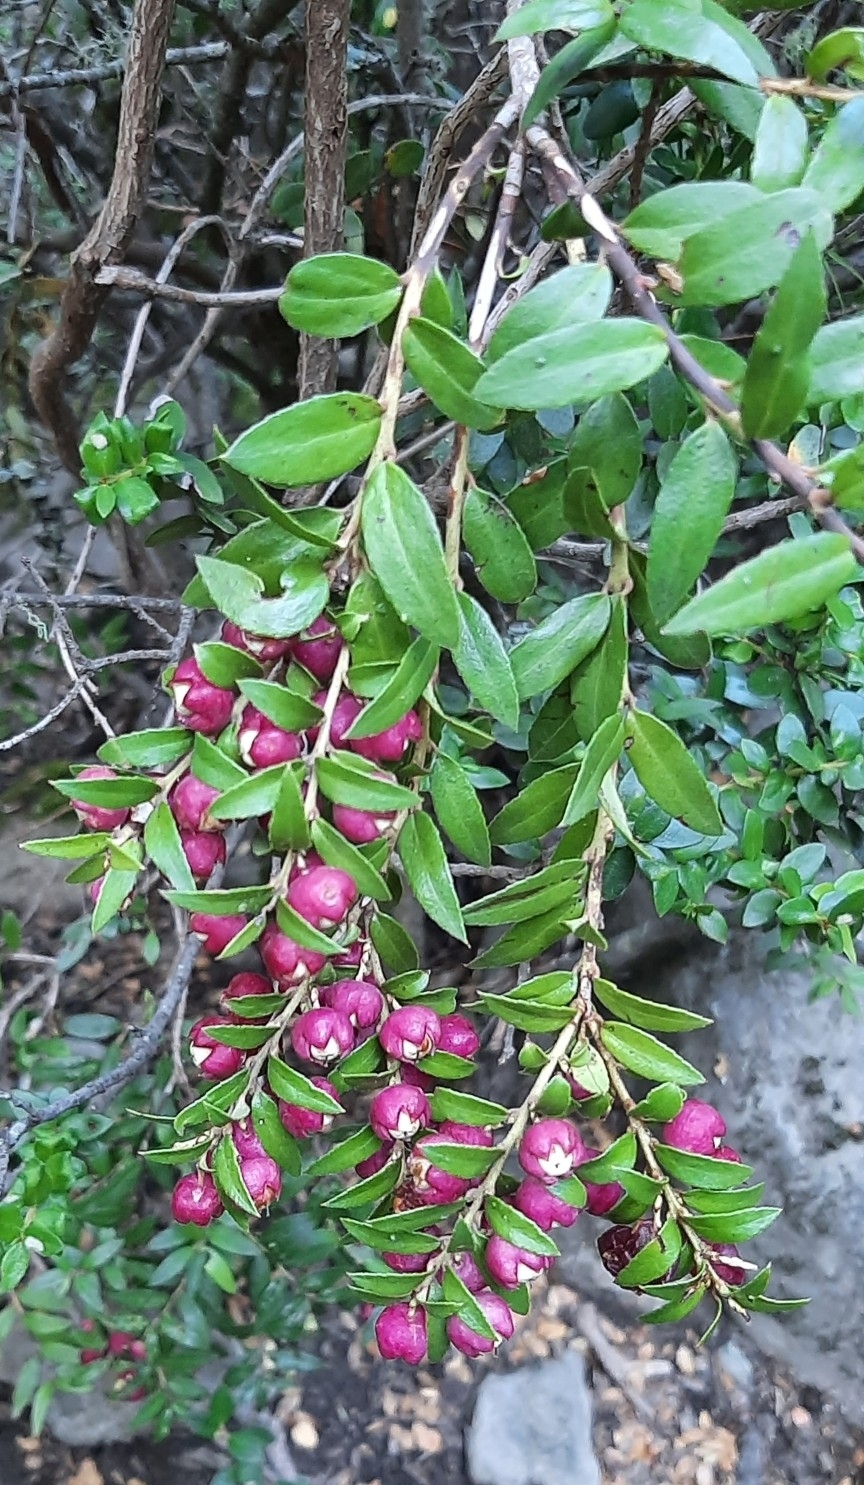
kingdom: Plantae
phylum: Tracheophyta
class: Magnoliopsida
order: Ericales
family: Ericaceae
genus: Gaultheria
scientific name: Gaultheria phillyreifolia
